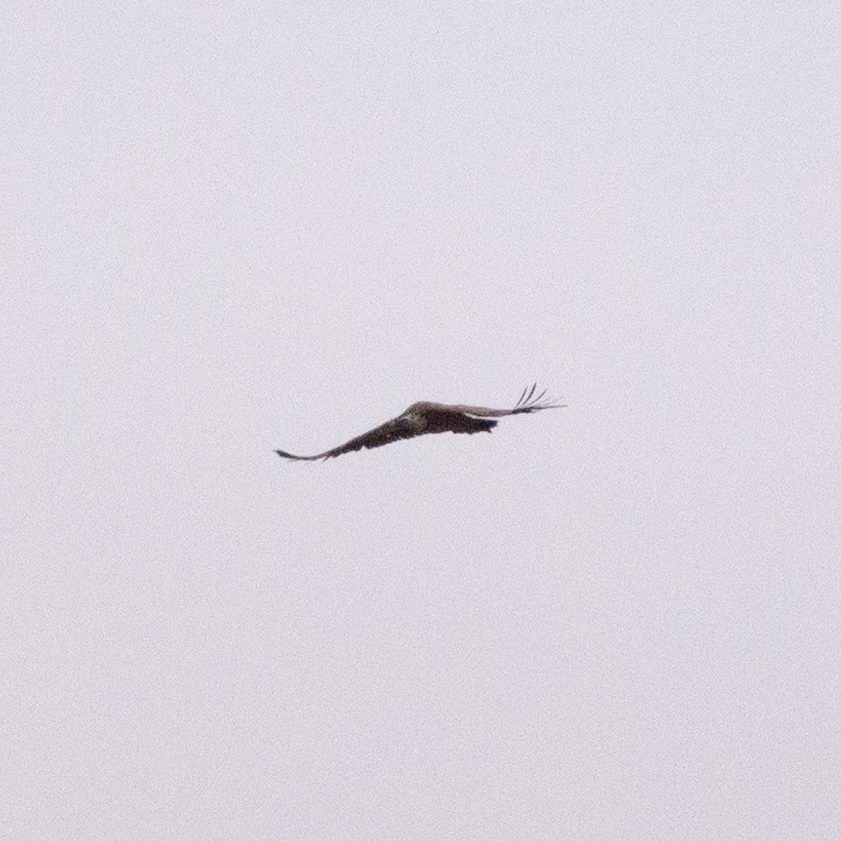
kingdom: Animalia
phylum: Chordata
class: Aves
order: Accipitriformes
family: Accipitridae
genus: Gyps
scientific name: Gyps fulvus
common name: Griffon vulture
